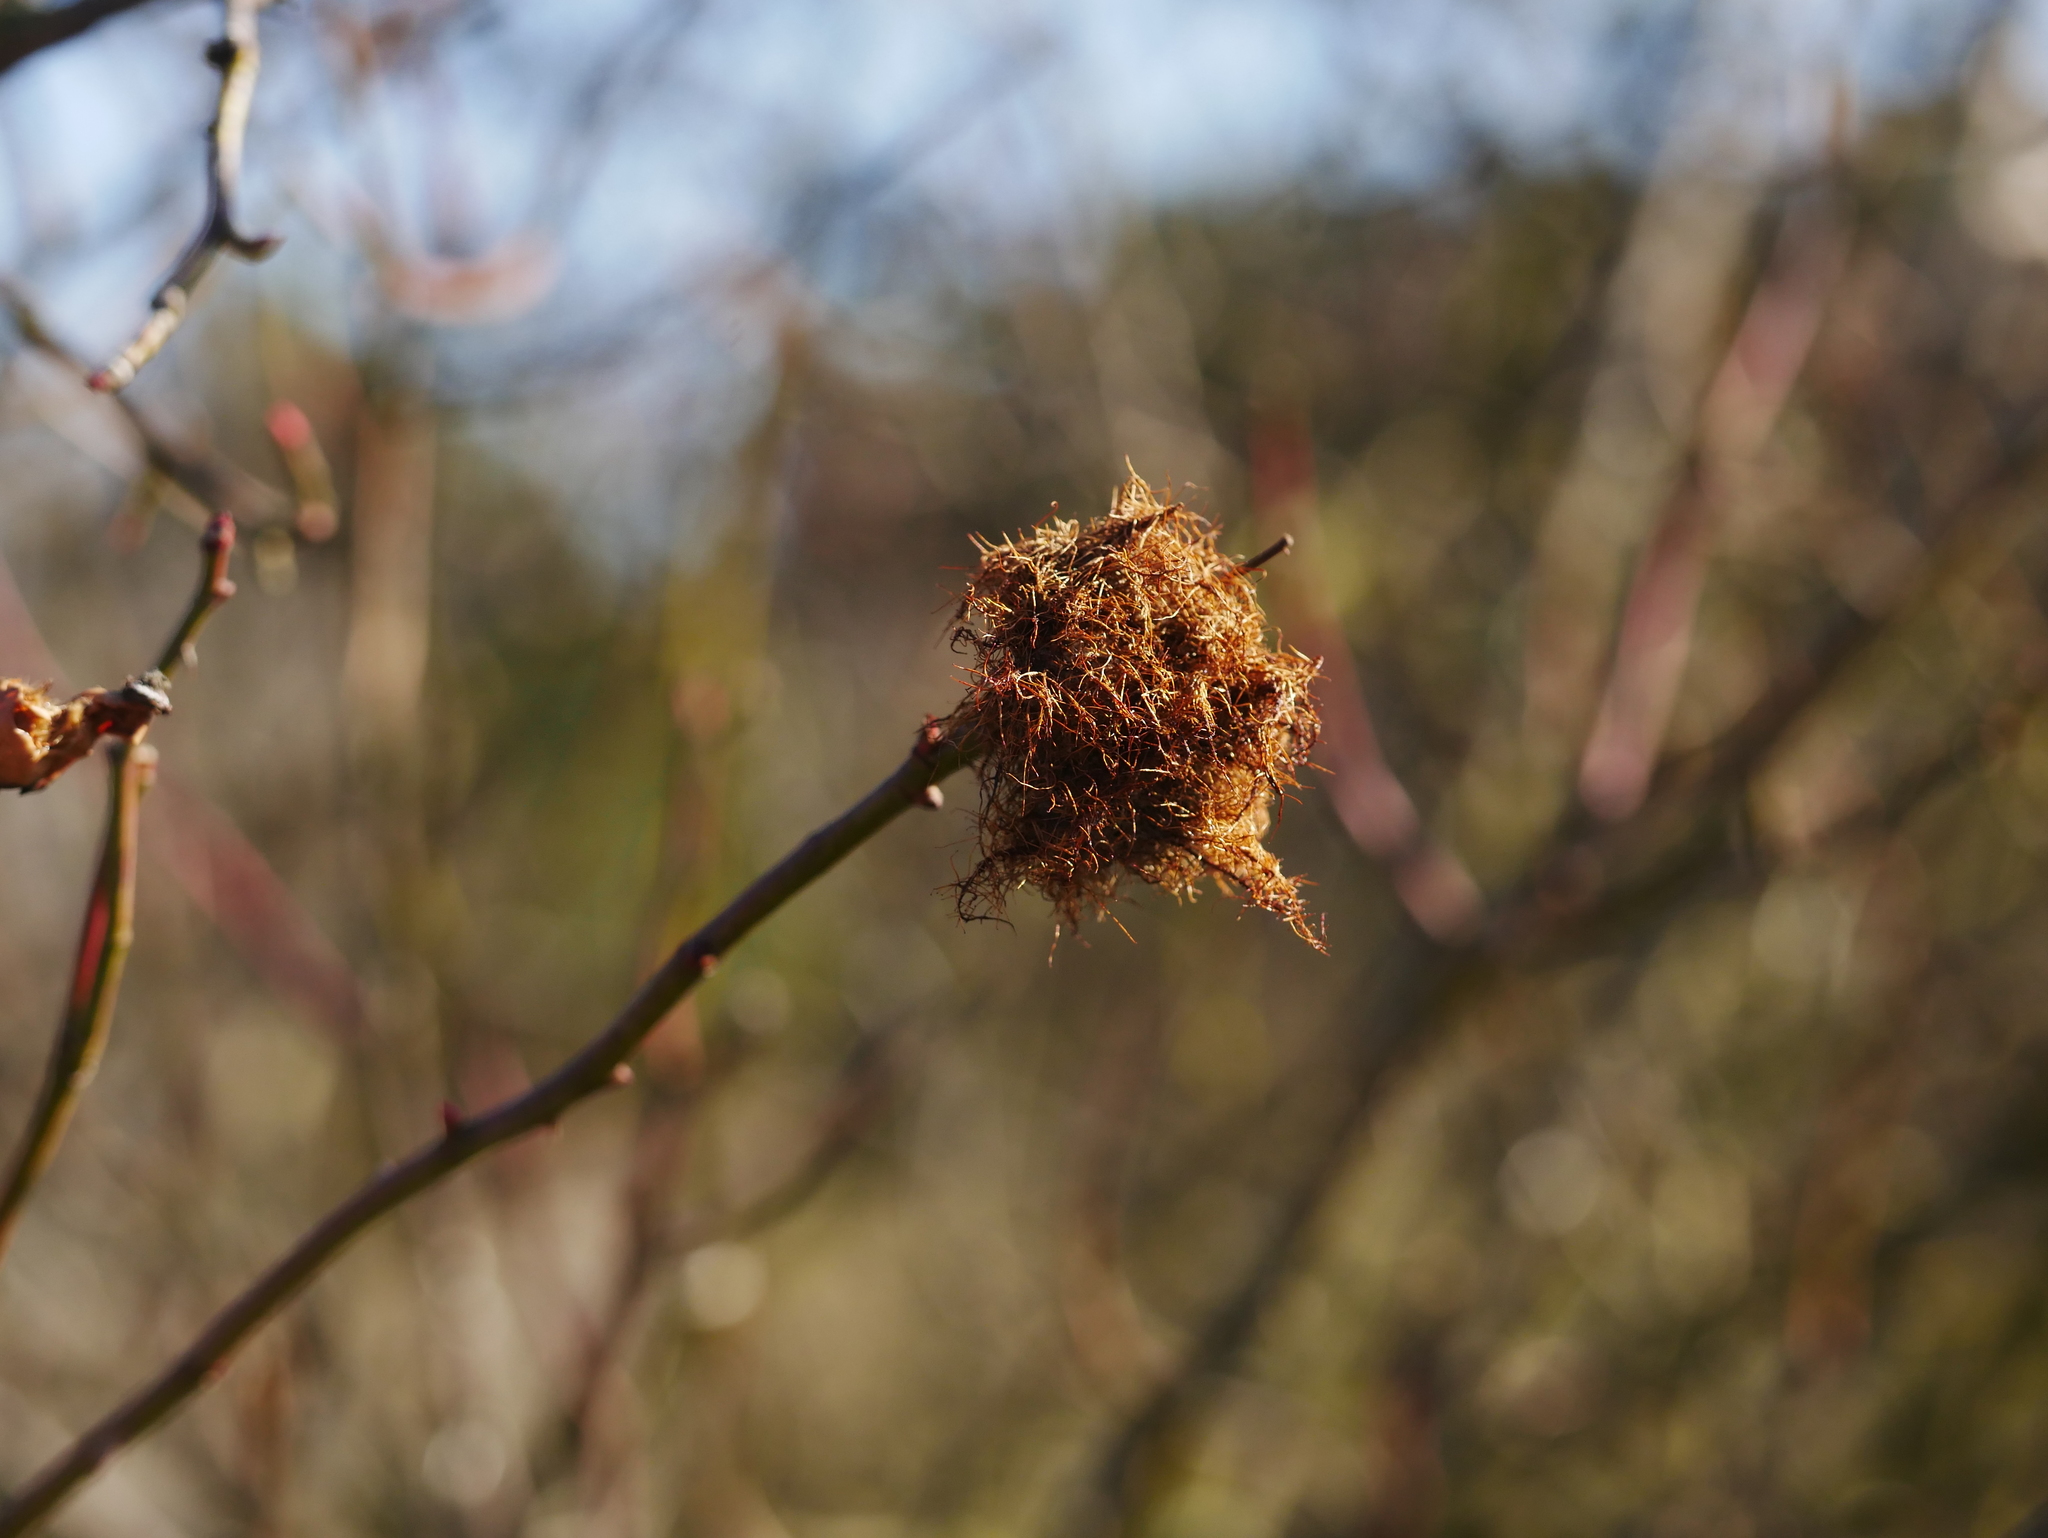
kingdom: Animalia
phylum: Arthropoda
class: Insecta
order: Hymenoptera
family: Cynipidae
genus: Diplolepis
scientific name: Diplolepis rosae
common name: Bedeguar gall
